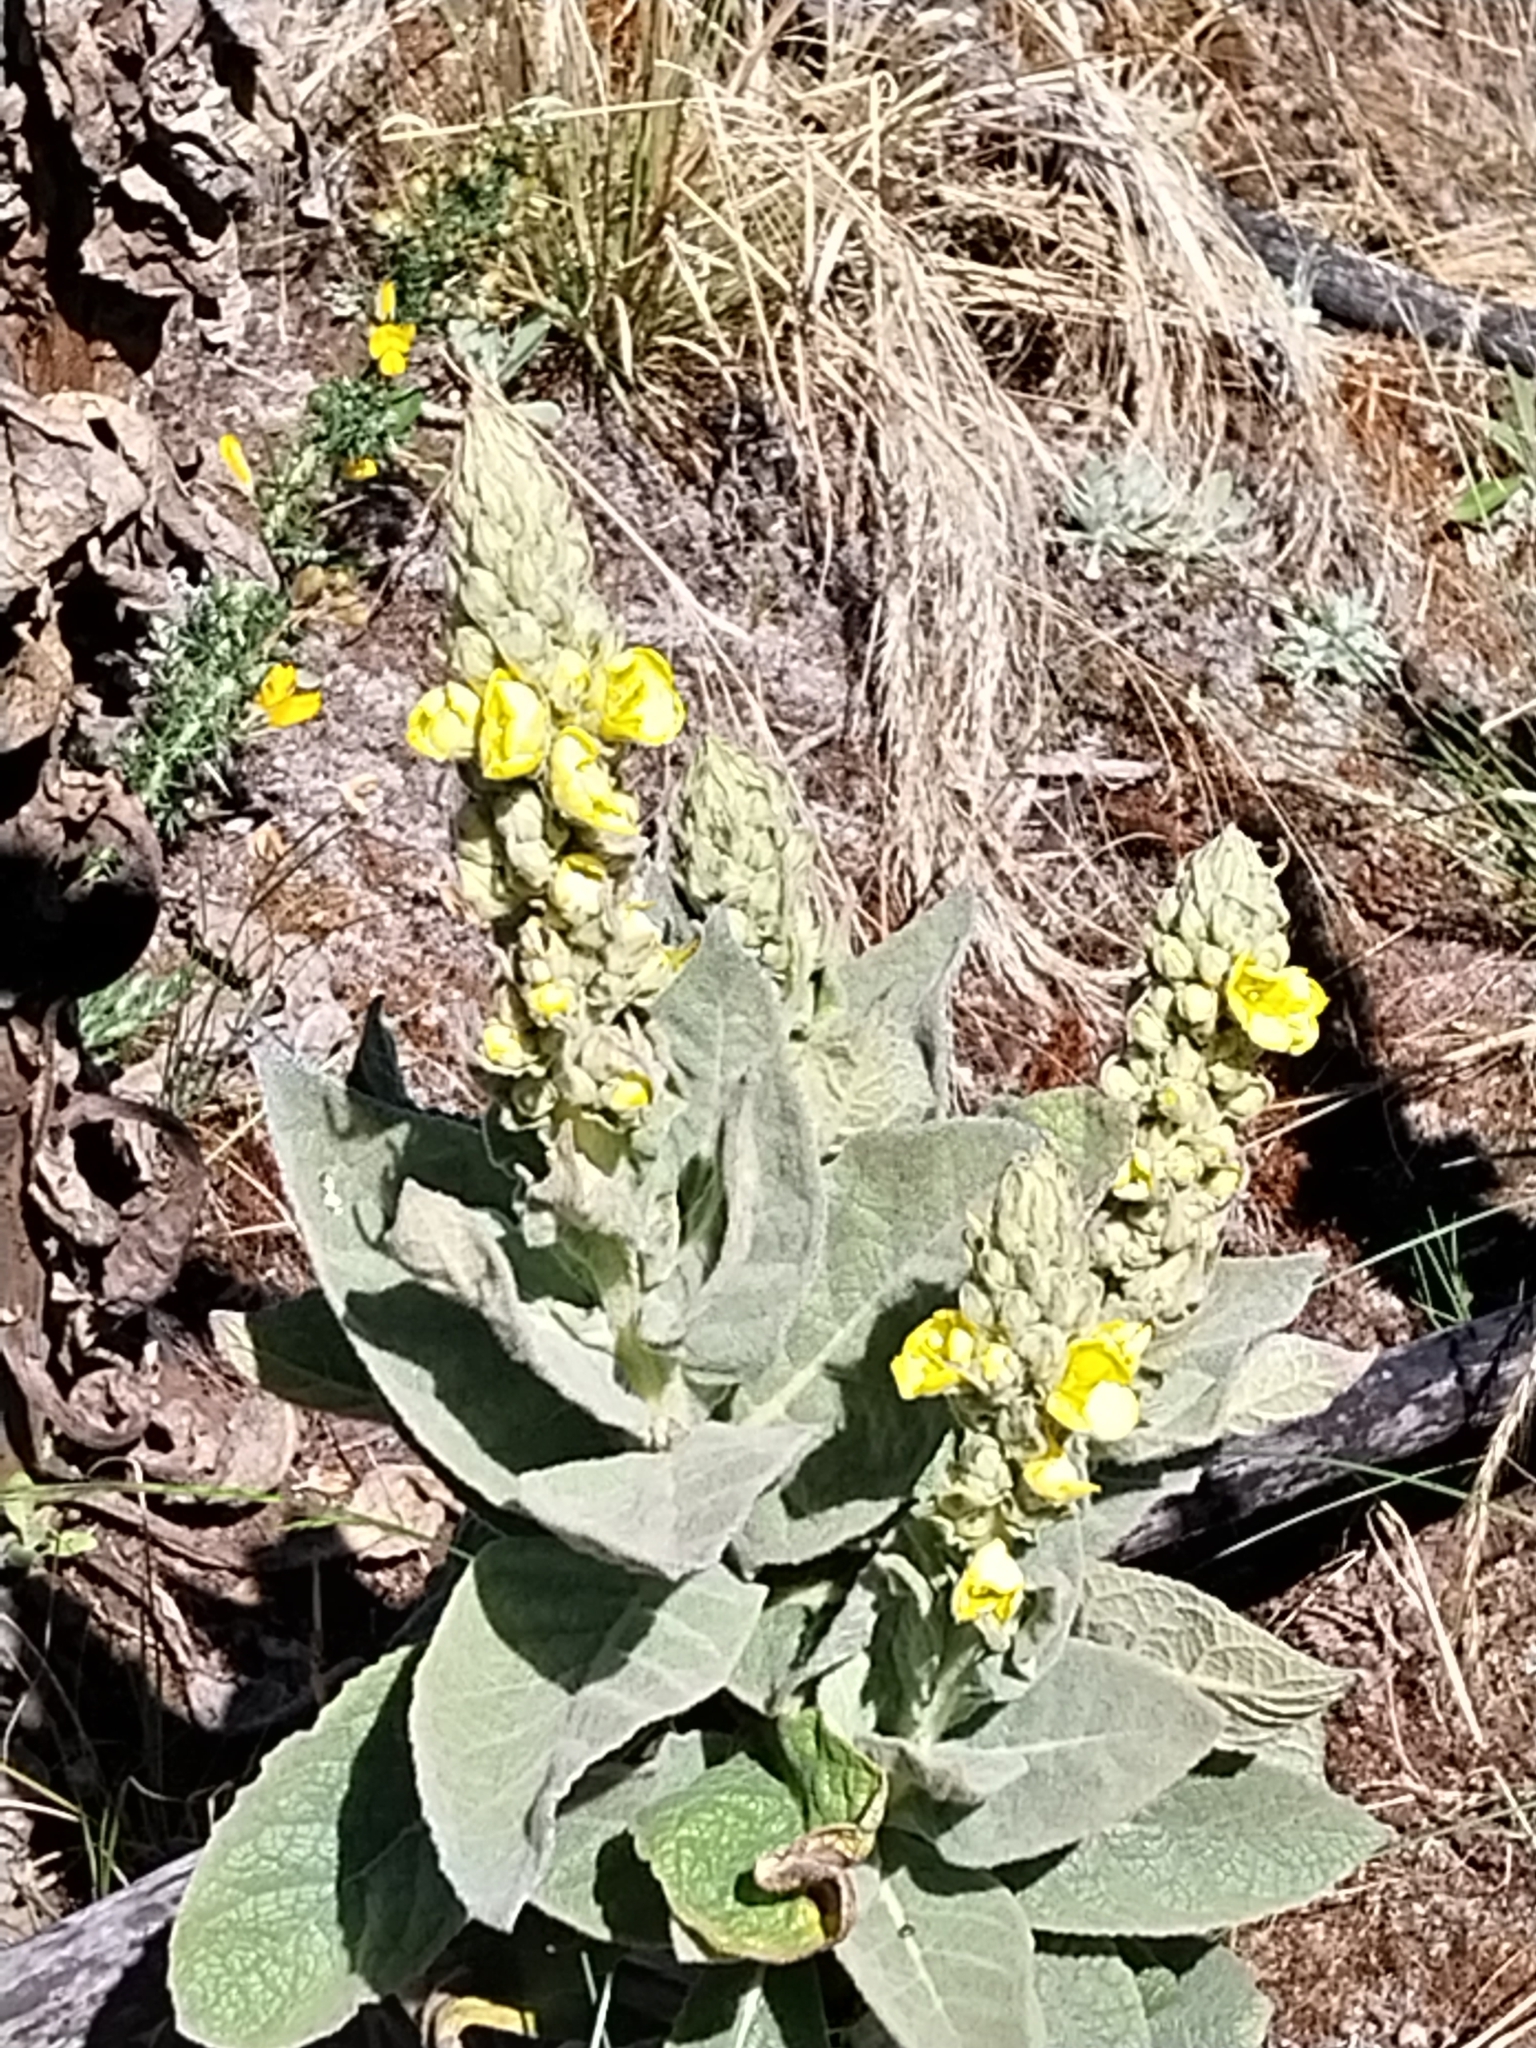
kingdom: Plantae
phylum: Tracheophyta
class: Magnoliopsida
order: Lamiales
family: Scrophulariaceae
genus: Verbascum
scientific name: Verbascum thapsus
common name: Common mullein
